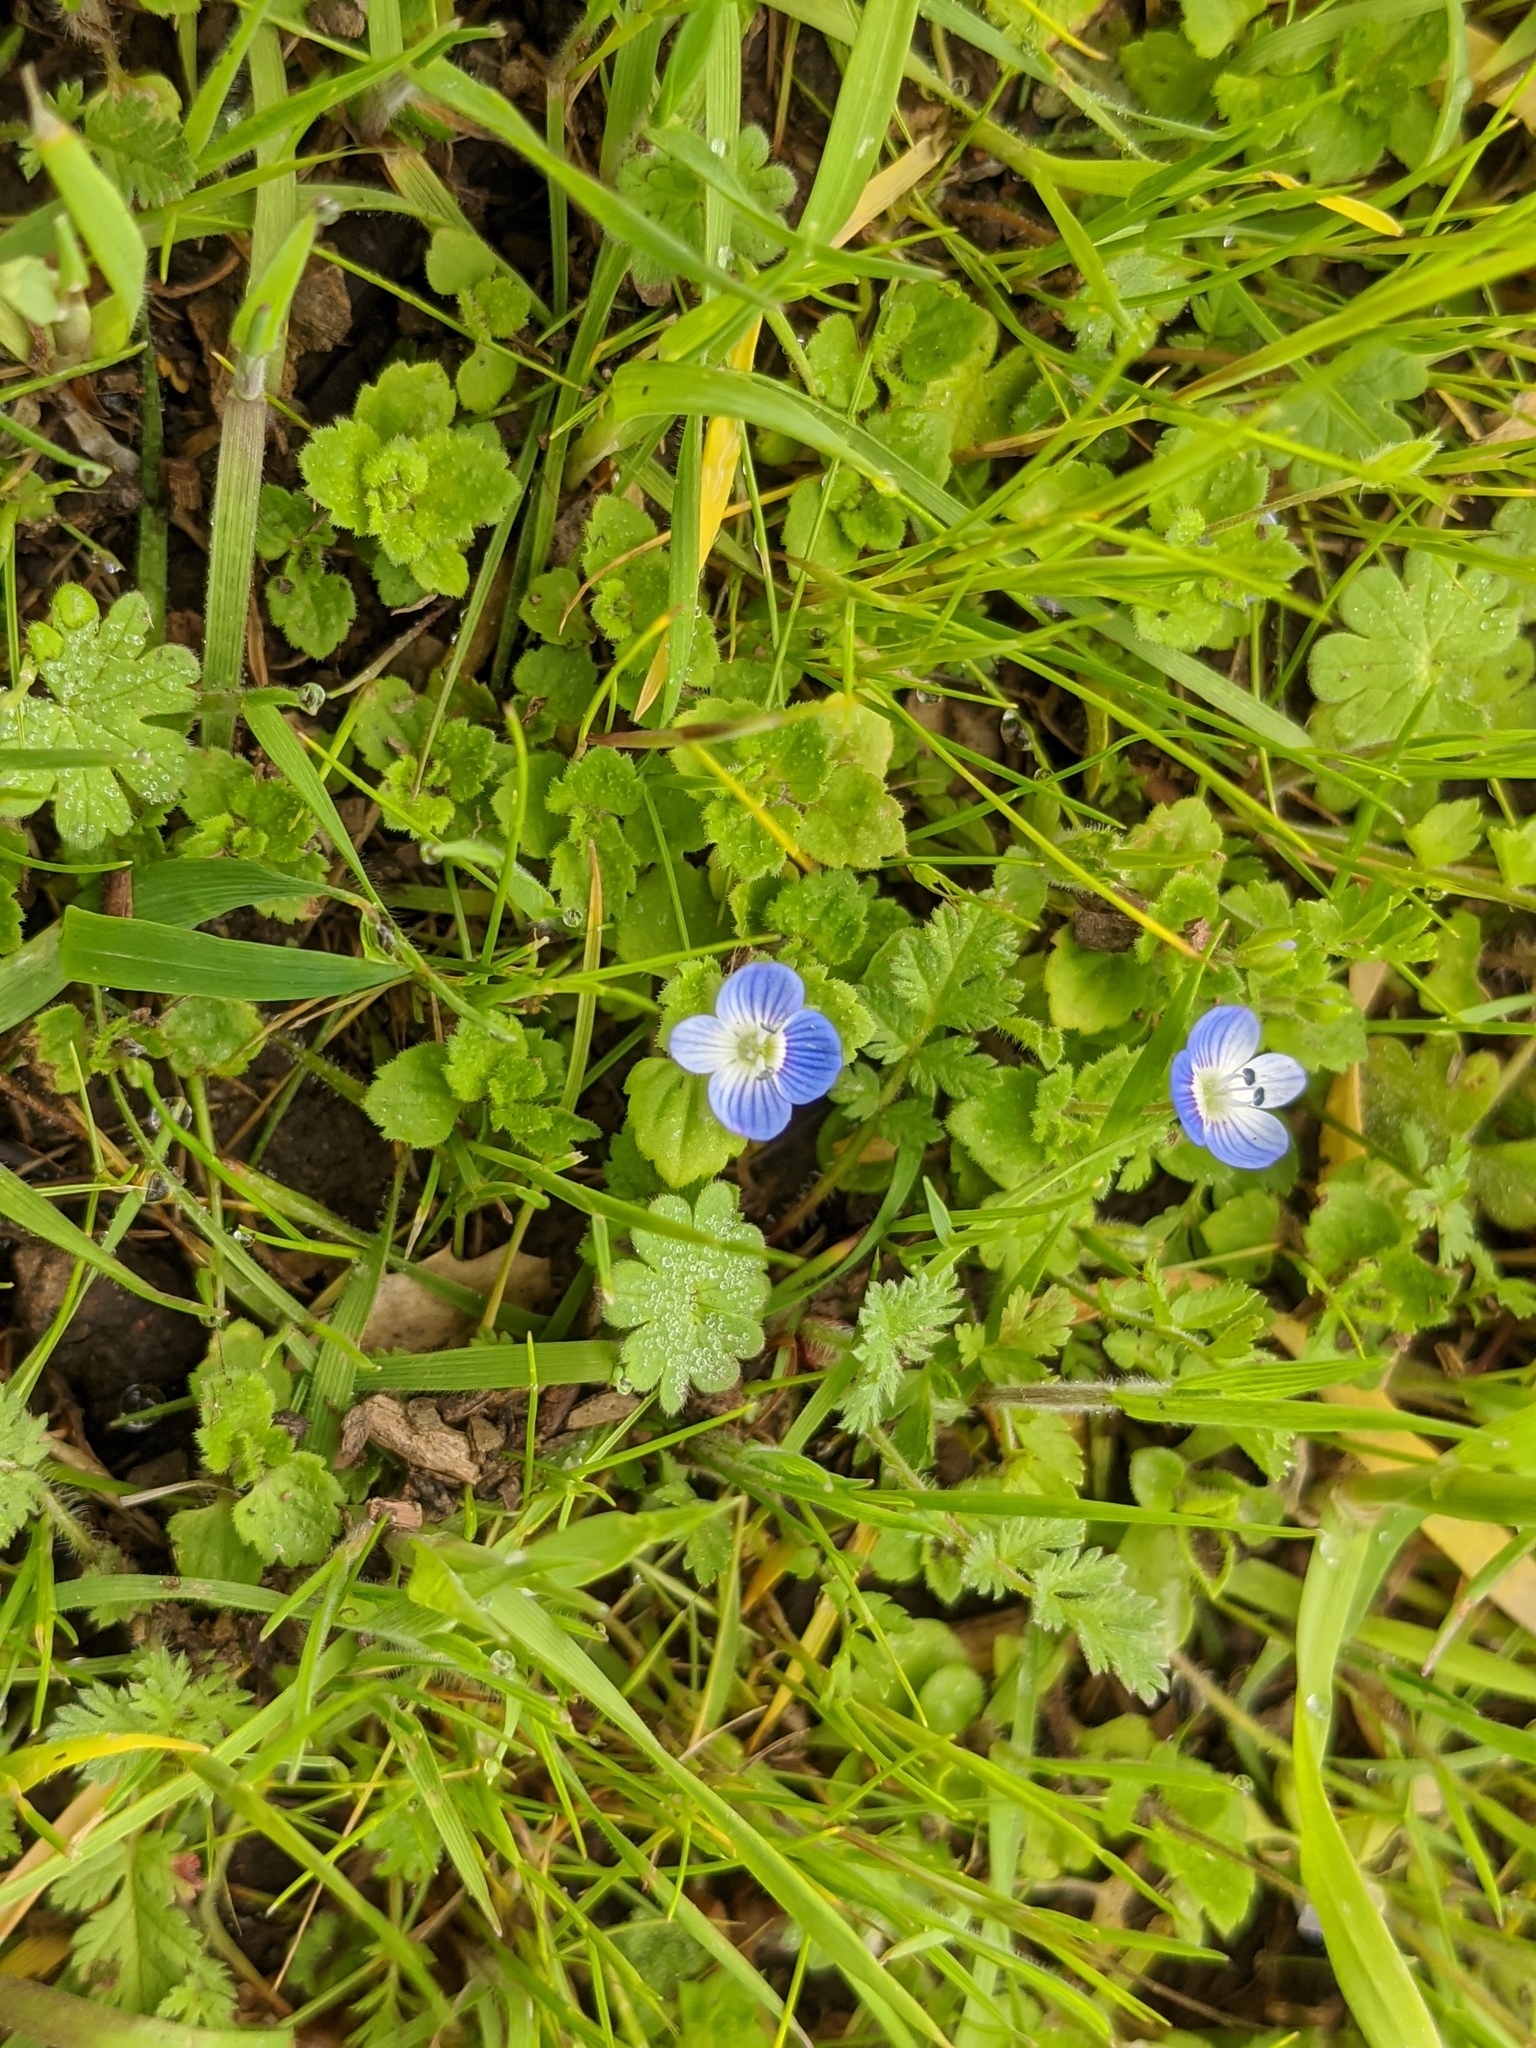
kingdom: Plantae
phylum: Tracheophyta
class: Magnoliopsida
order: Lamiales
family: Plantaginaceae
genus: Veronica
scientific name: Veronica persica
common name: Common field-speedwell
